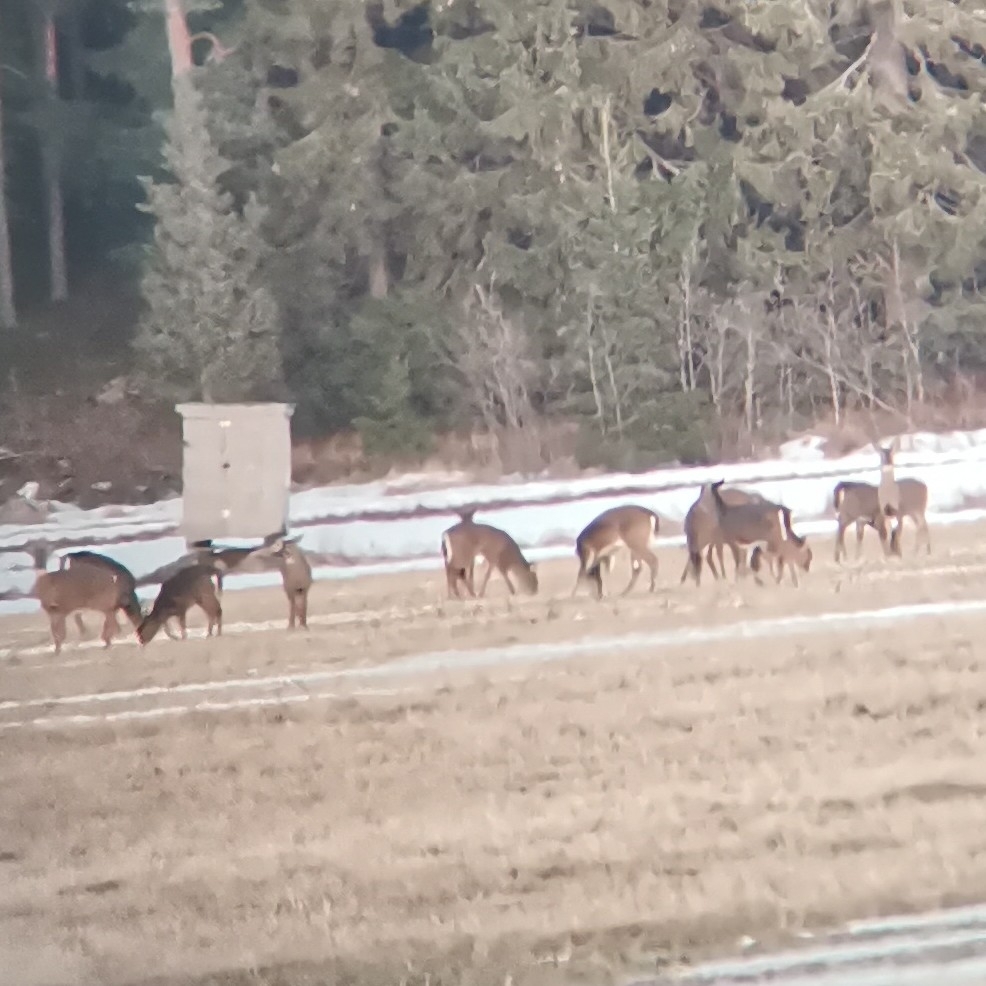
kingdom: Animalia
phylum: Chordata
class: Mammalia
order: Artiodactyla
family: Cervidae
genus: Odocoileus
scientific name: Odocoileus virginianus
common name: White-tailed deer
